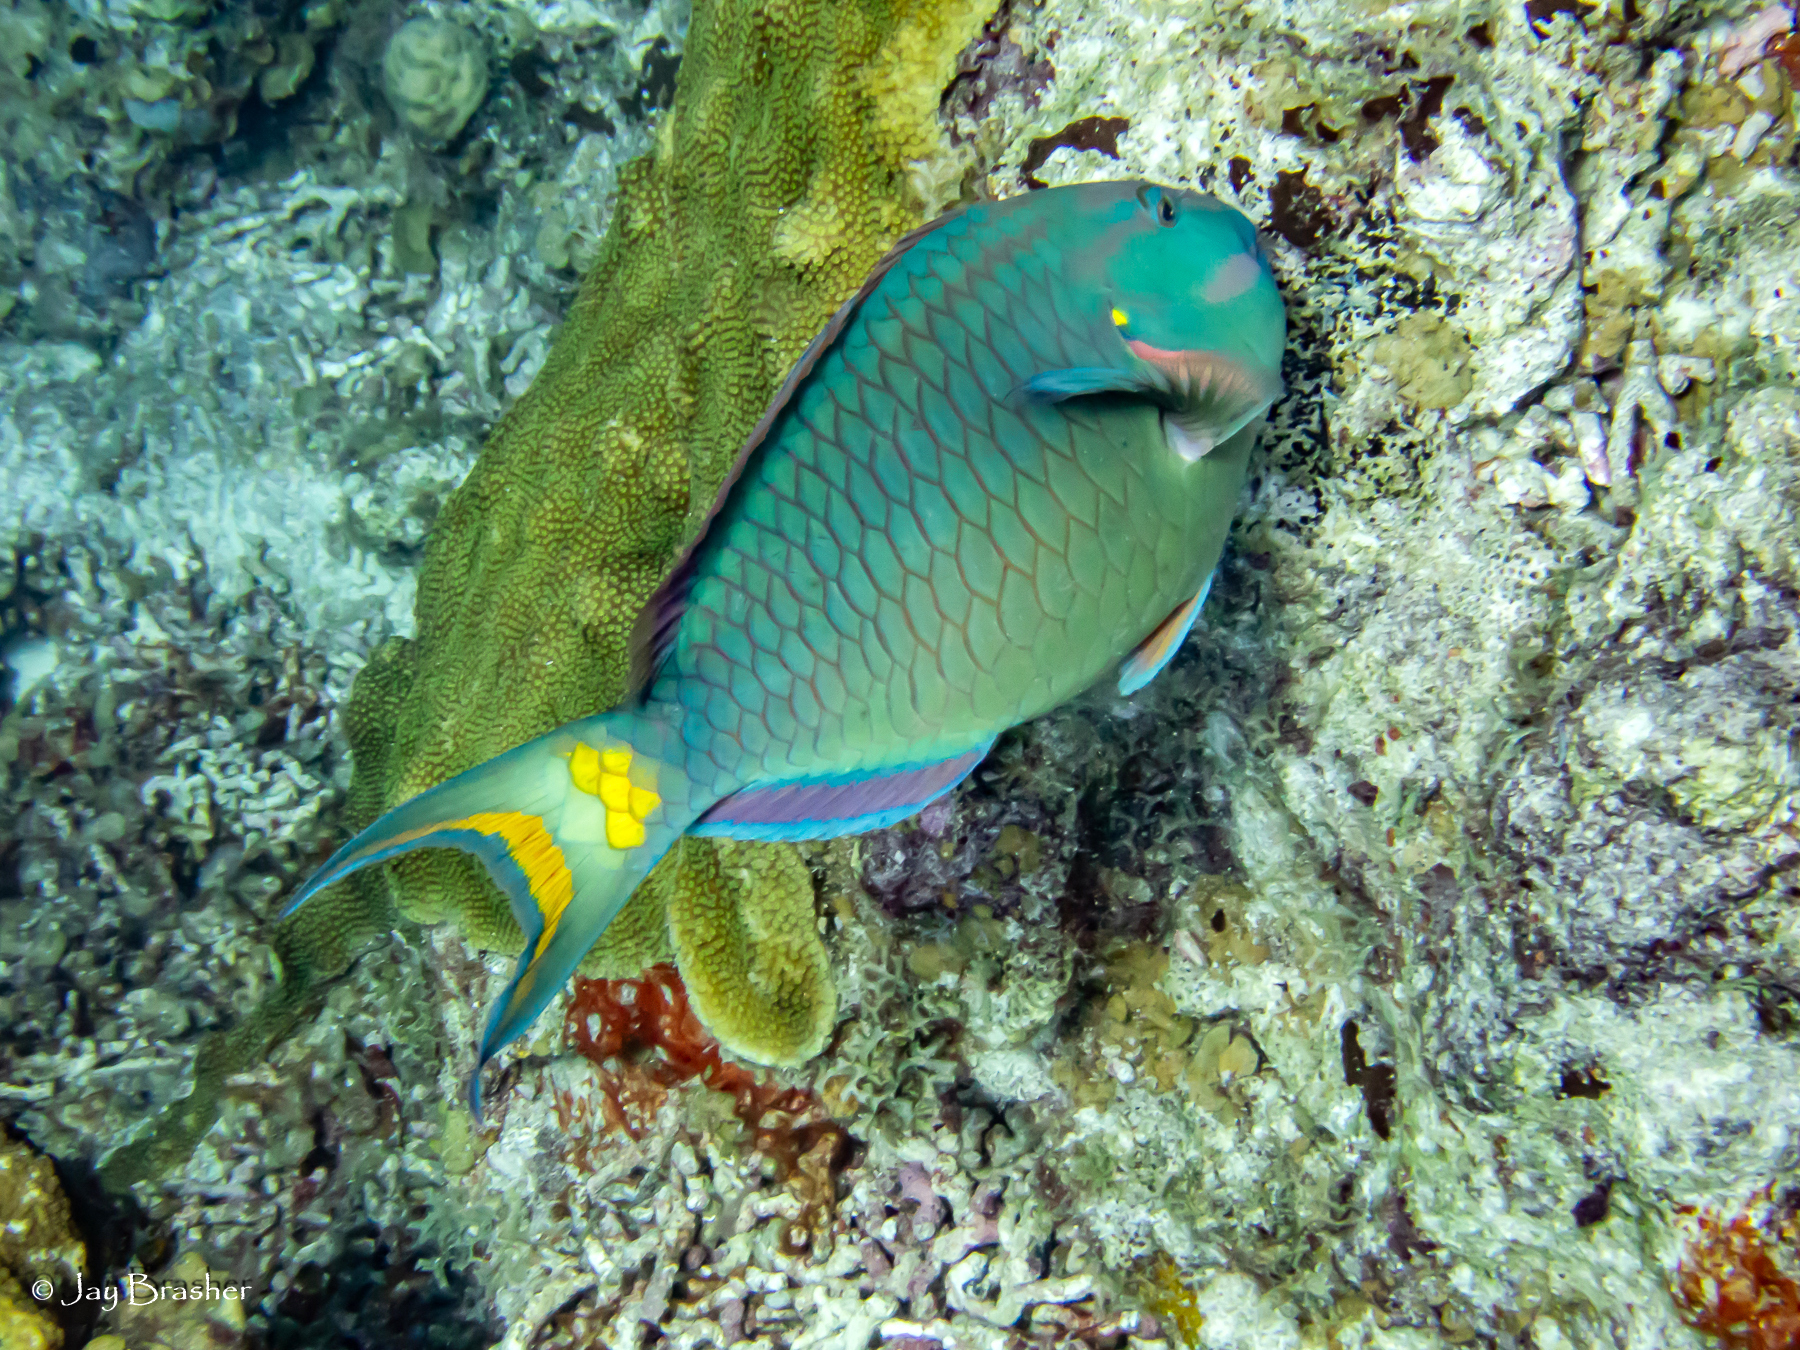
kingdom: Animalia
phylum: Chordata
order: Perciformes
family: Scaridae
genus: Sparisoma
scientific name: Sparisoma viride
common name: Stoplight parrotfish
